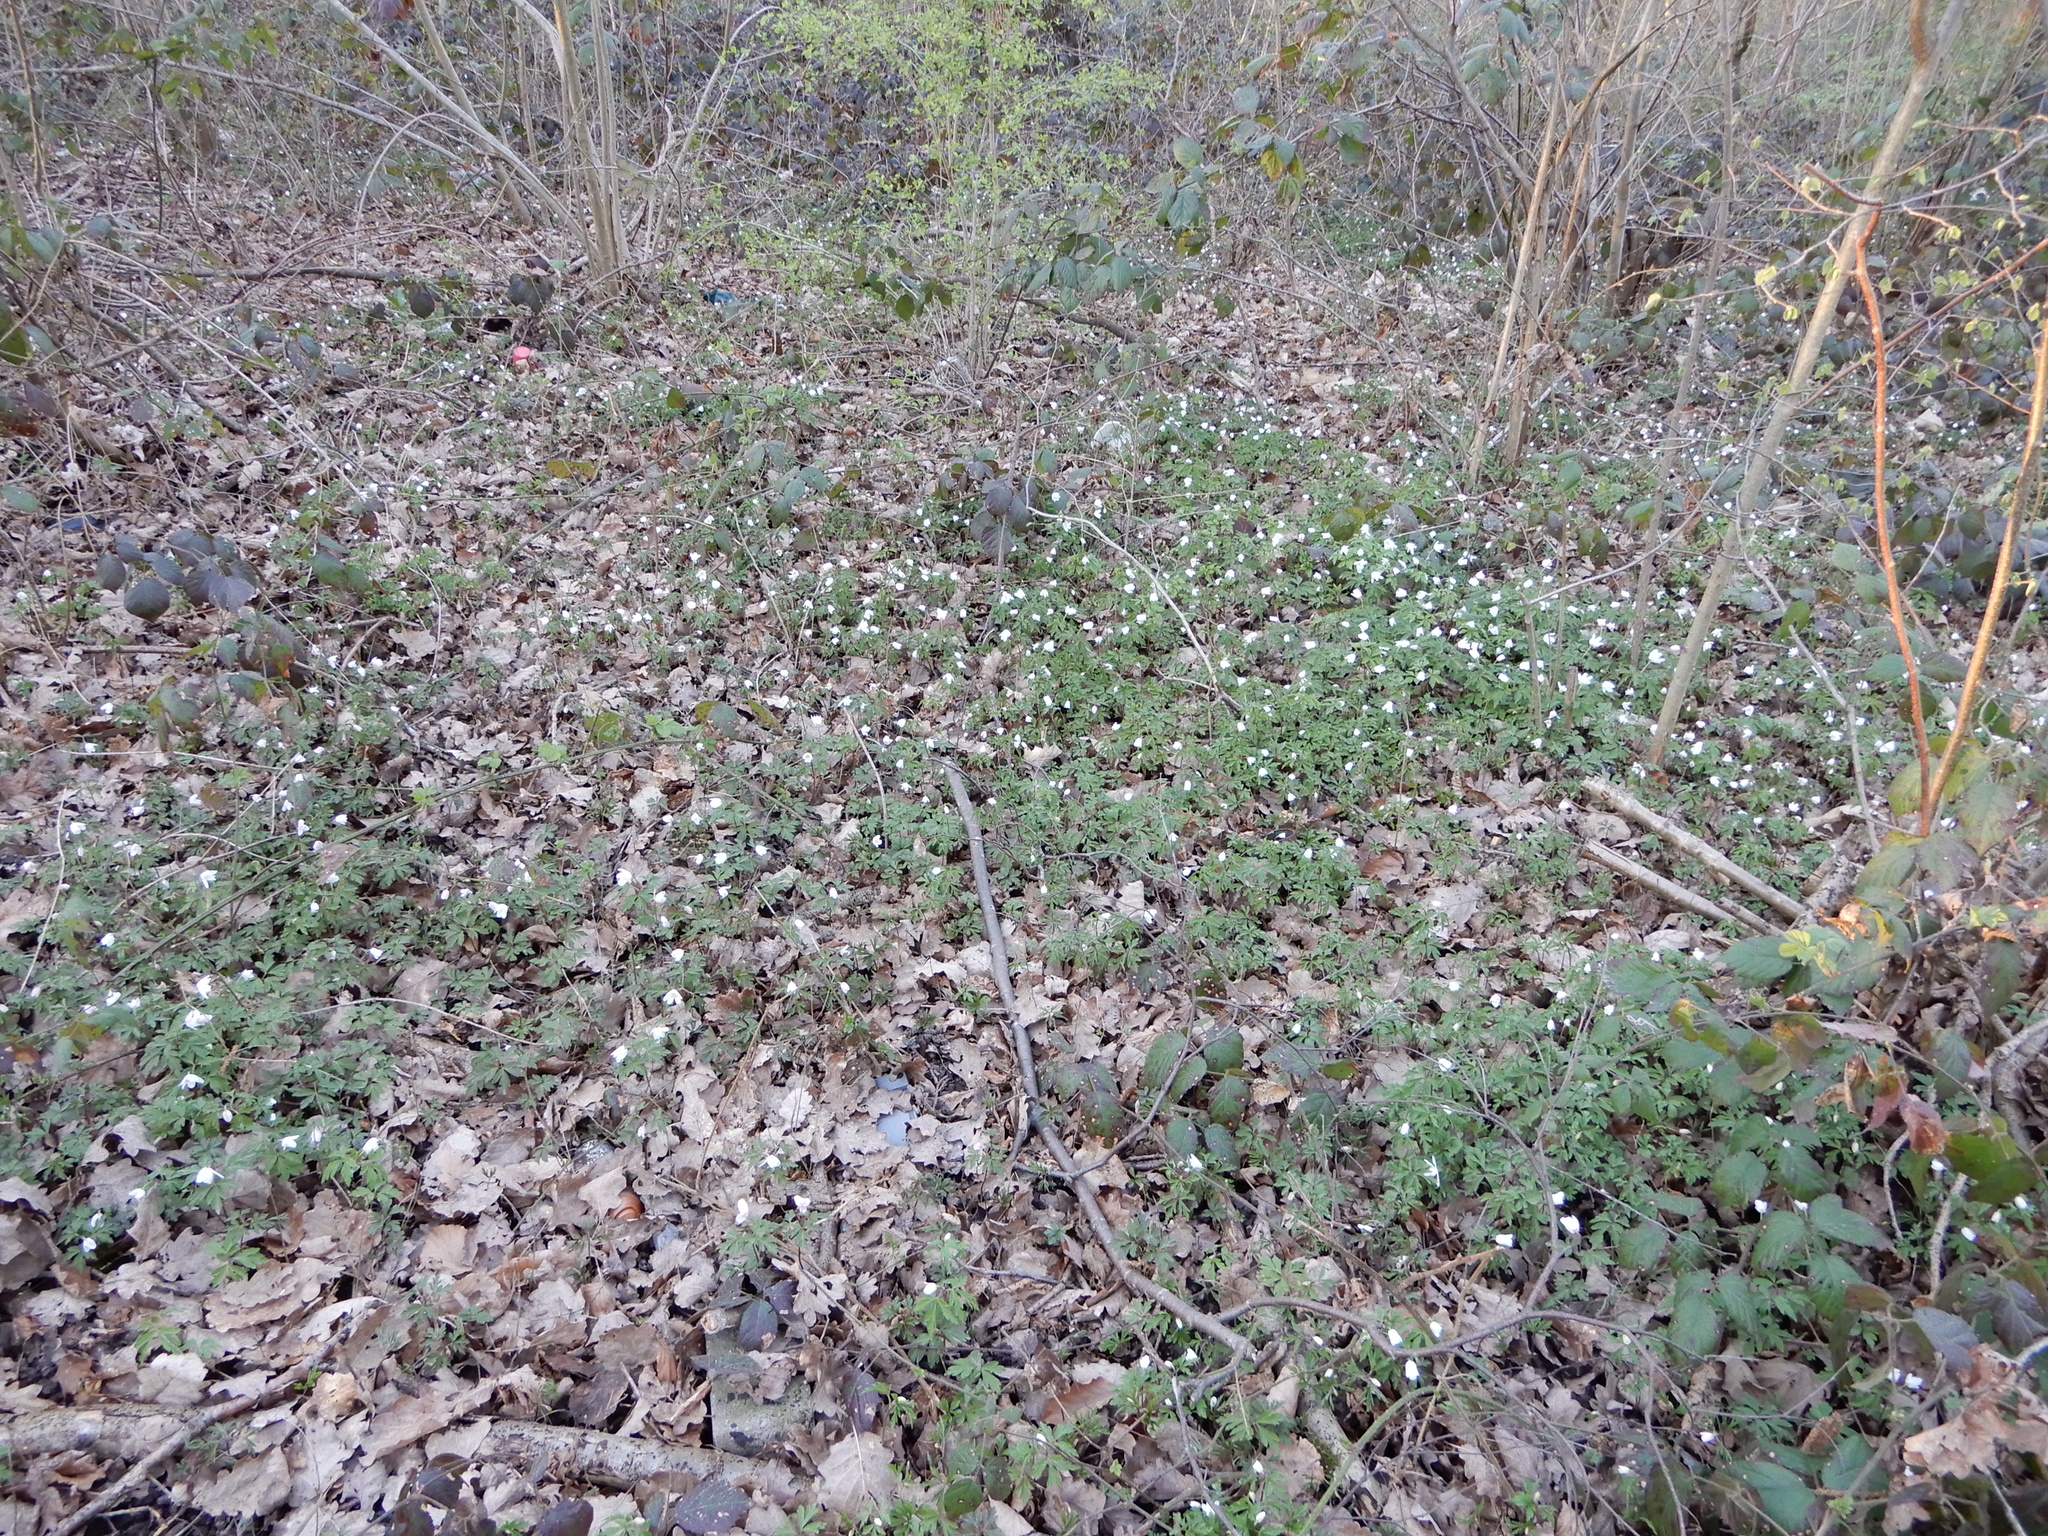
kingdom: Plantae
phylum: Tracheophyta
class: Magnoliopsida
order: Ranunculales
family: Ranunculaceae
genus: Anemone
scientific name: Anemone nemorosa
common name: Wood anemone
